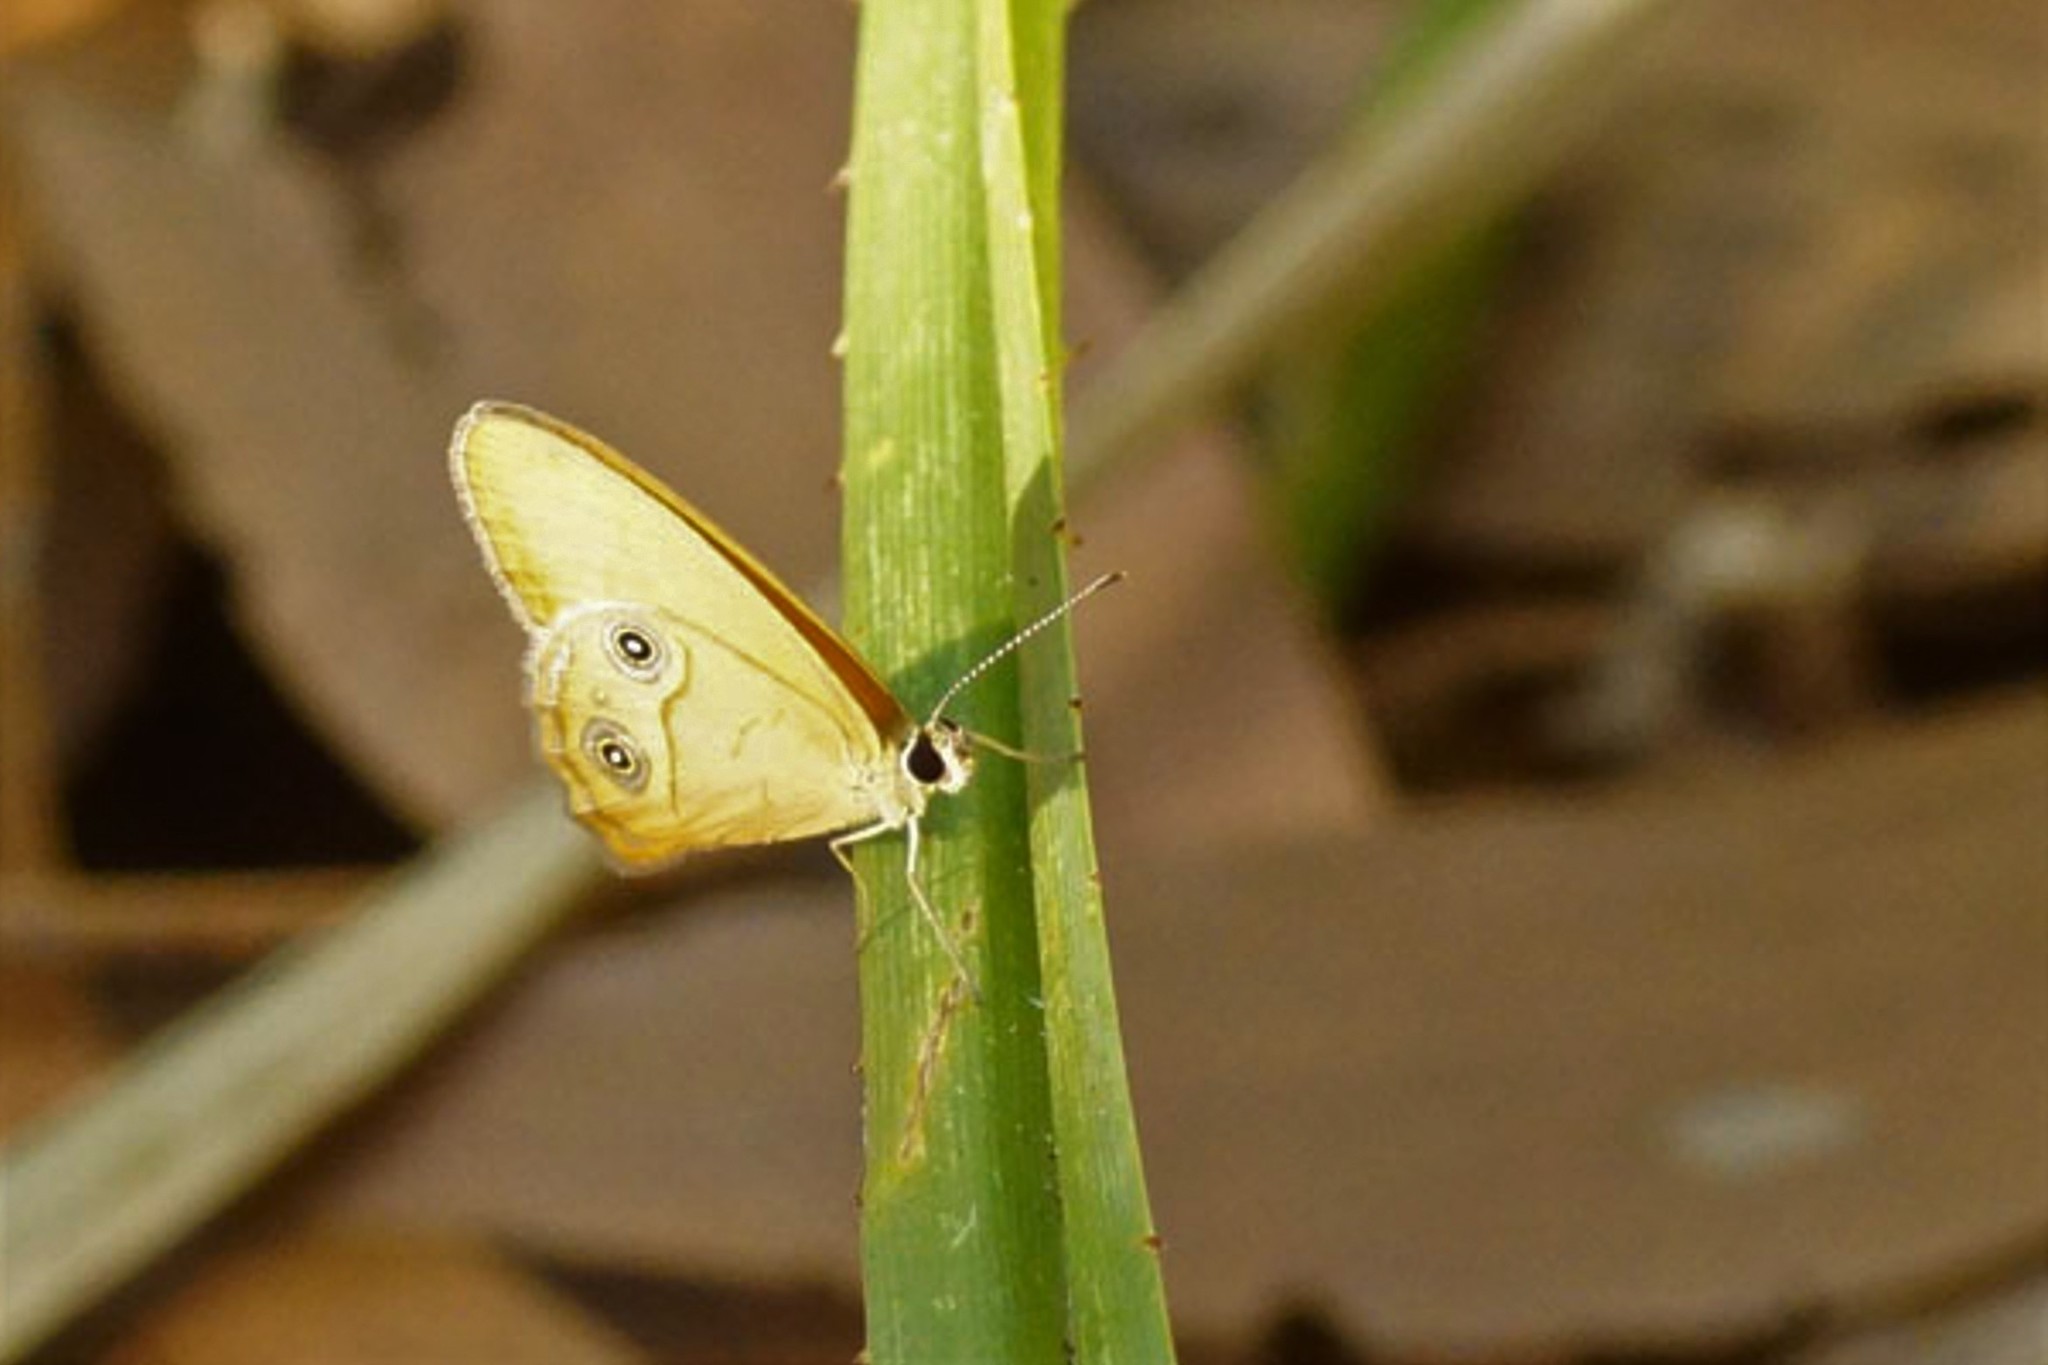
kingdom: Animalia
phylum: Arthropoda
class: Insecta
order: Lepidoptera
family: Nymphalidae
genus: Hypocysta
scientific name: Hypocysta adiante
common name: Orange ringlet
